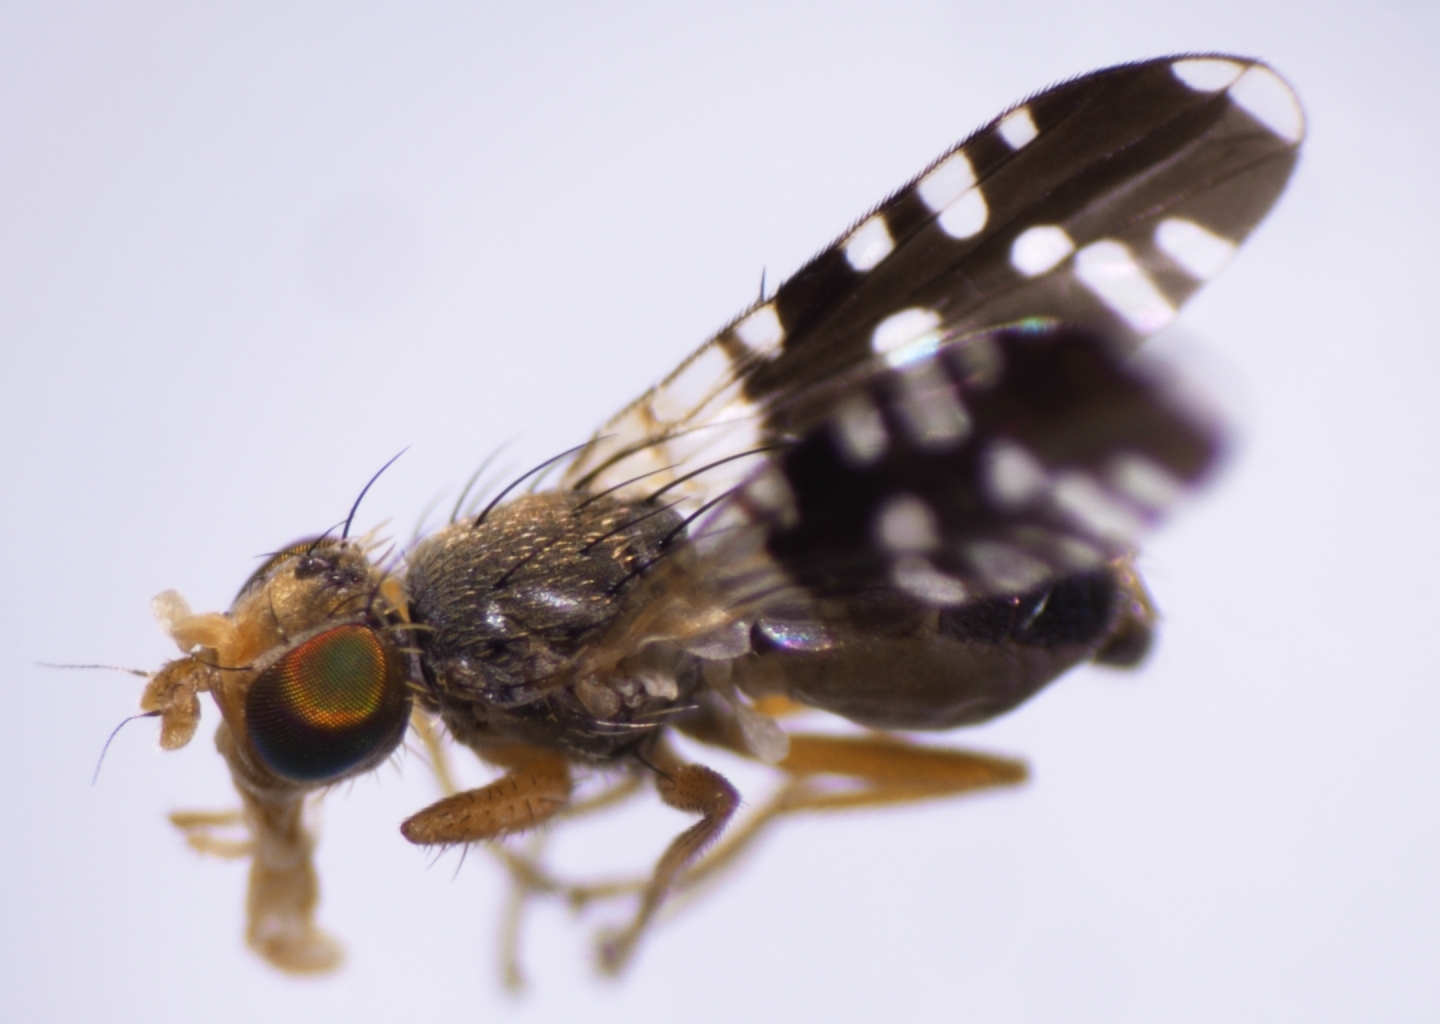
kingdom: Animalia
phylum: Arthropoda
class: Insecta
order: Diptera
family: Tephritidae
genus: Spathulina
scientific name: Spathulina acroleuca
